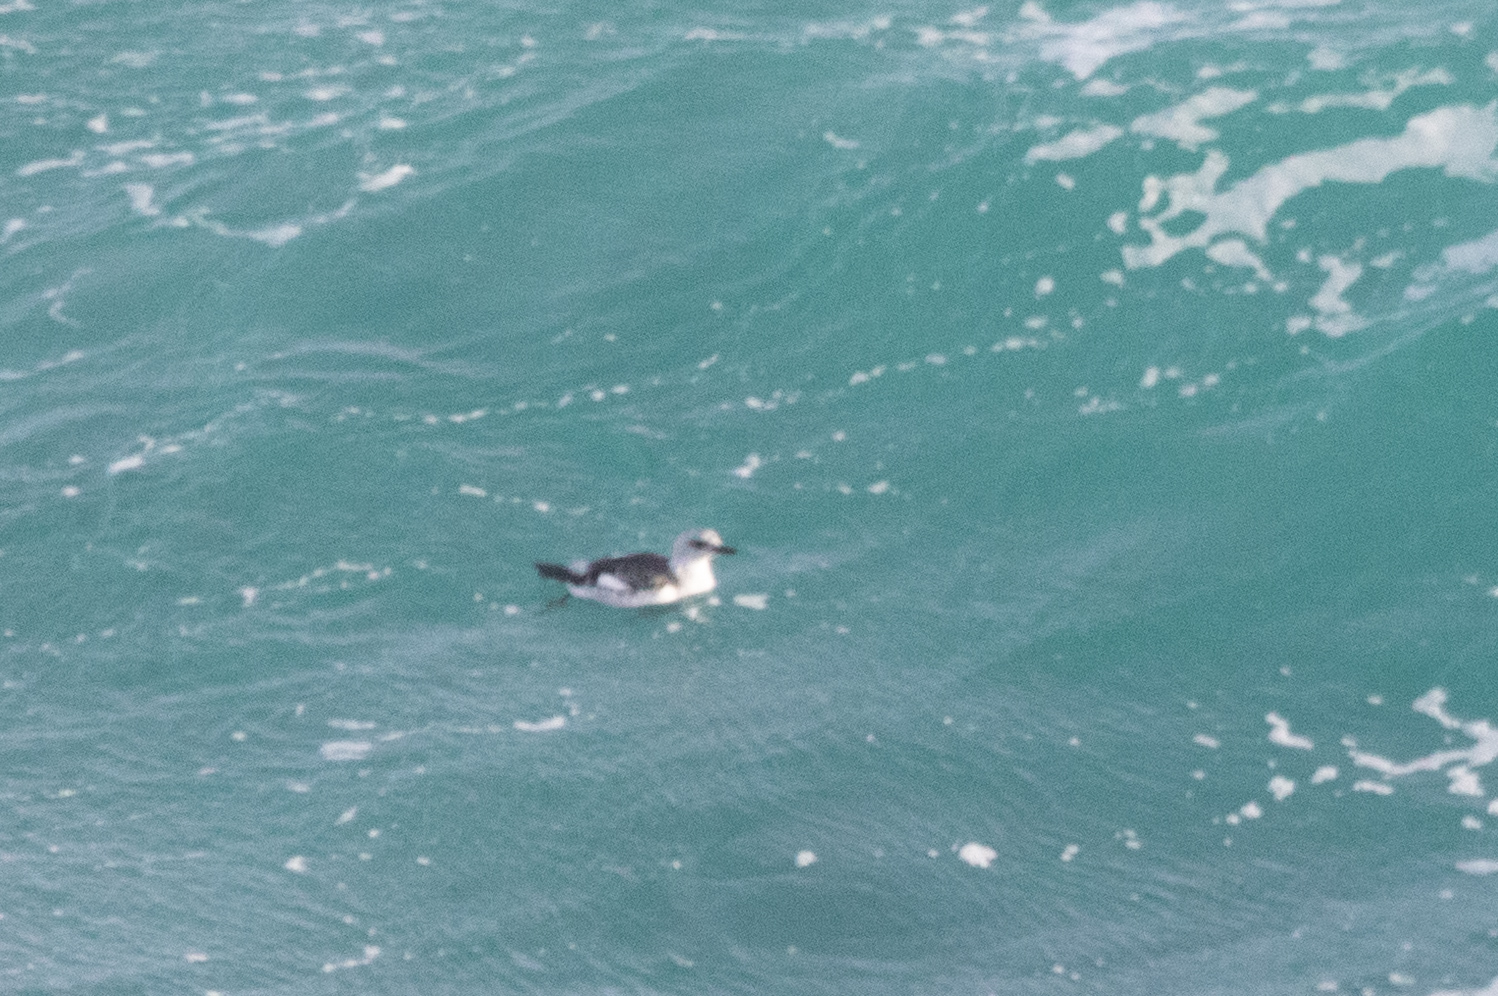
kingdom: Animalia
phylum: Chordata
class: Aves
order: Charadriiformes
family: Alcidae
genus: Cepphus
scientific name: Cepphus grylle
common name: Black guillemot
